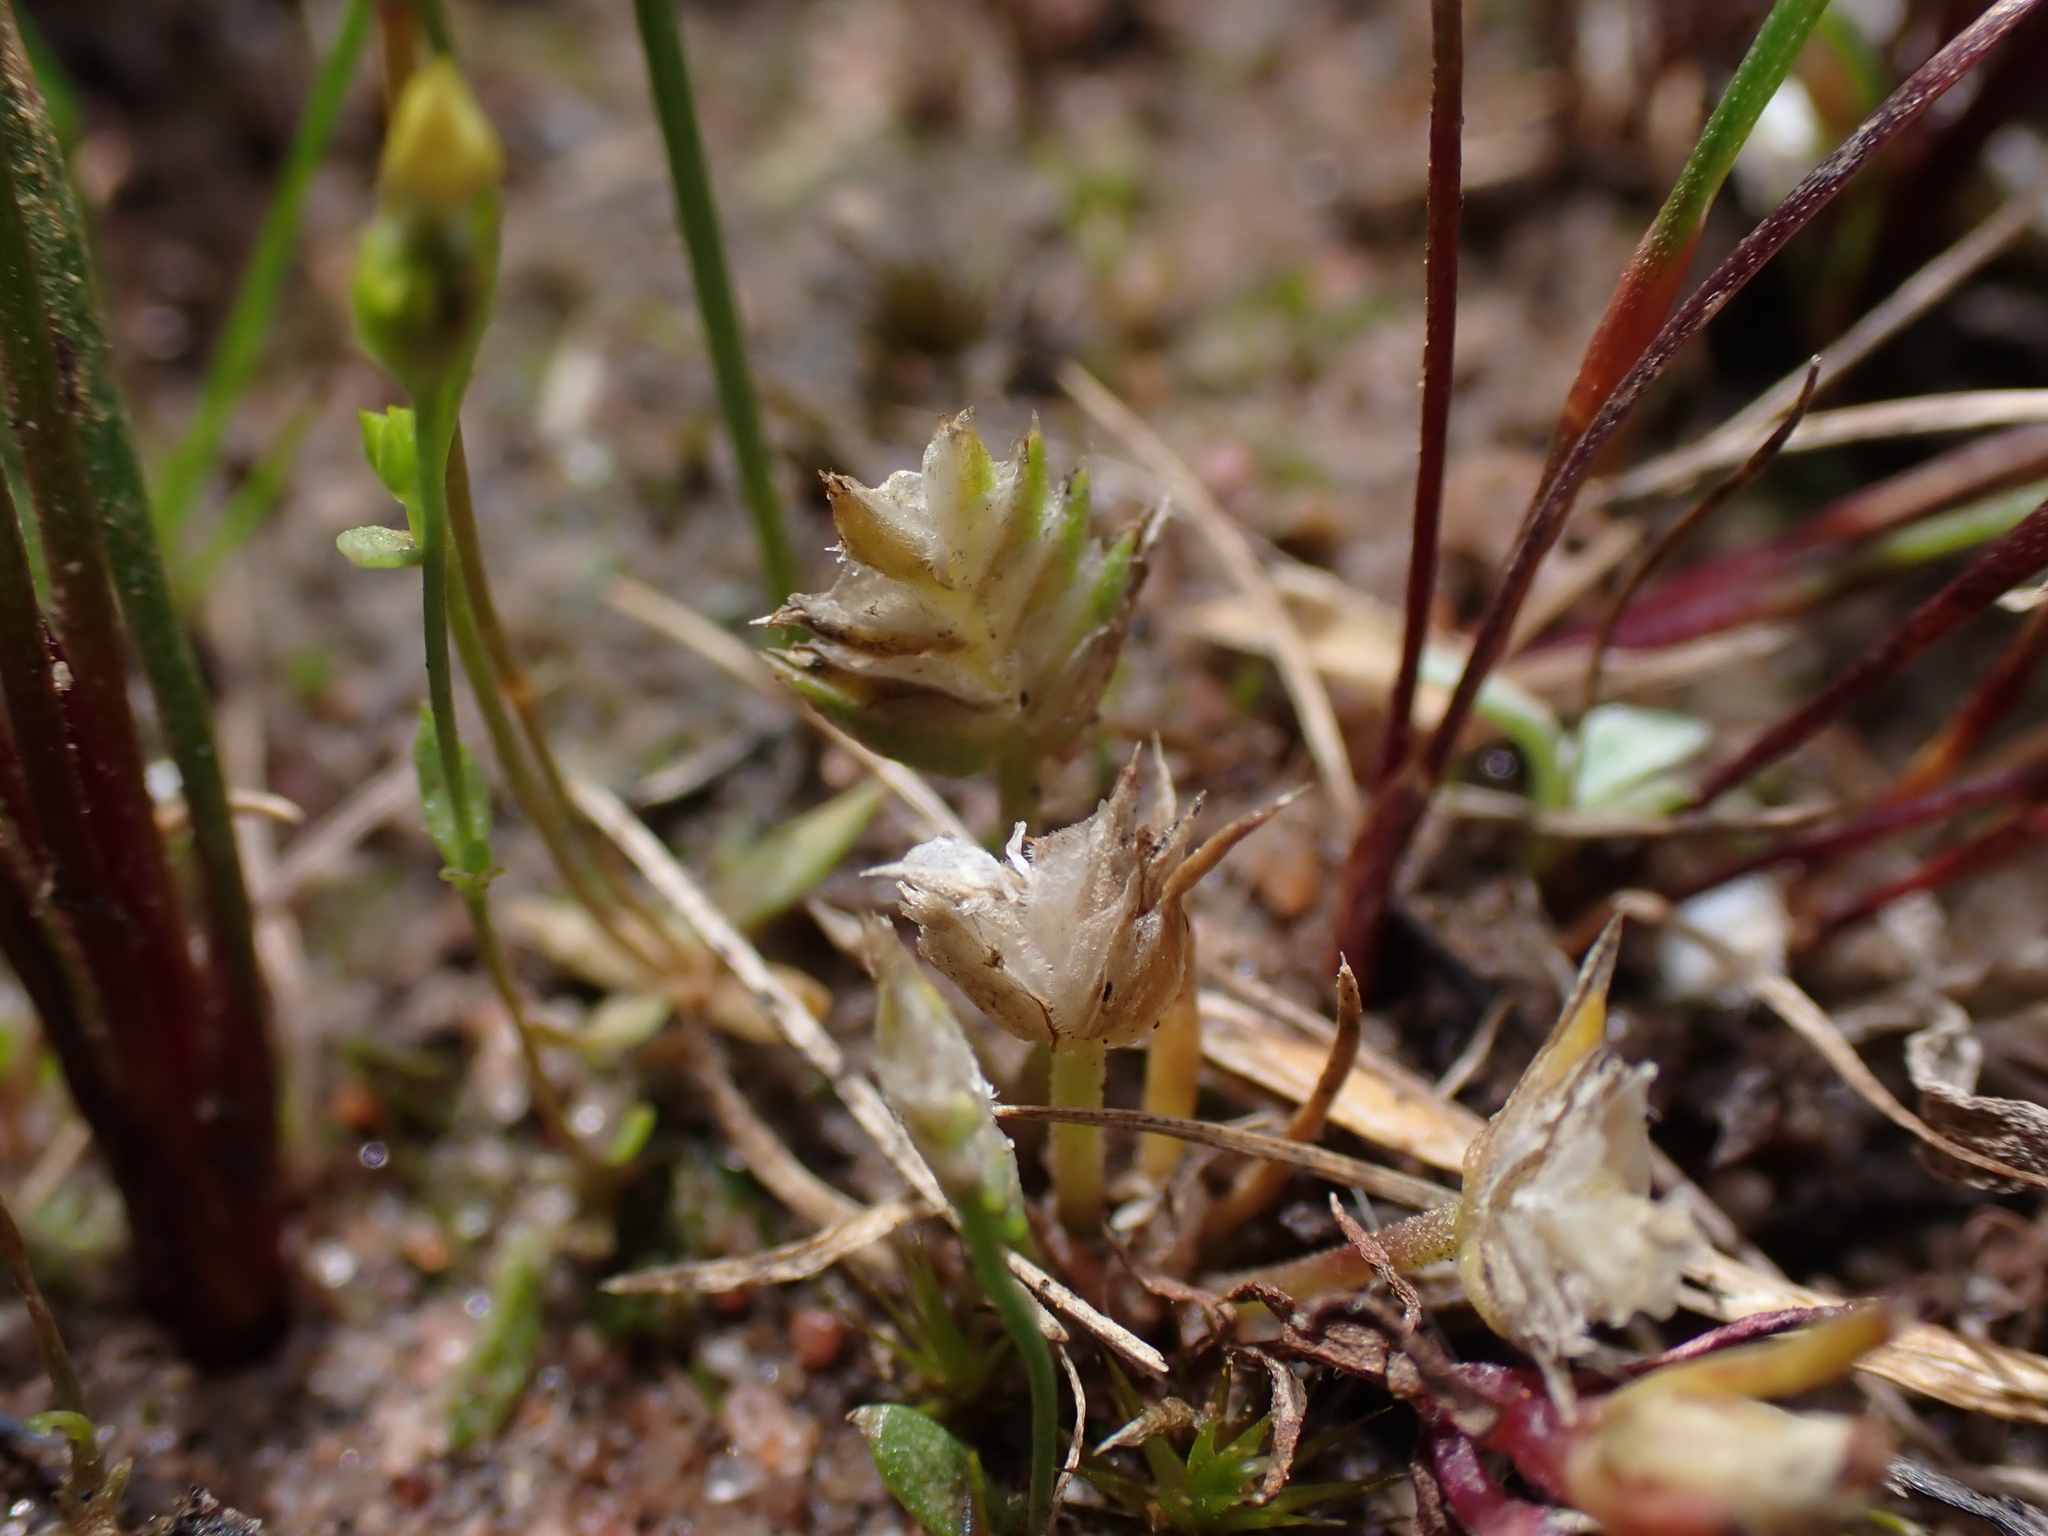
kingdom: Plantae
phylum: Tracheophyta
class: Liliopsida
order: Poales
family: Restionaceae
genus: Aphelia
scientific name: Aphelia pumilio
